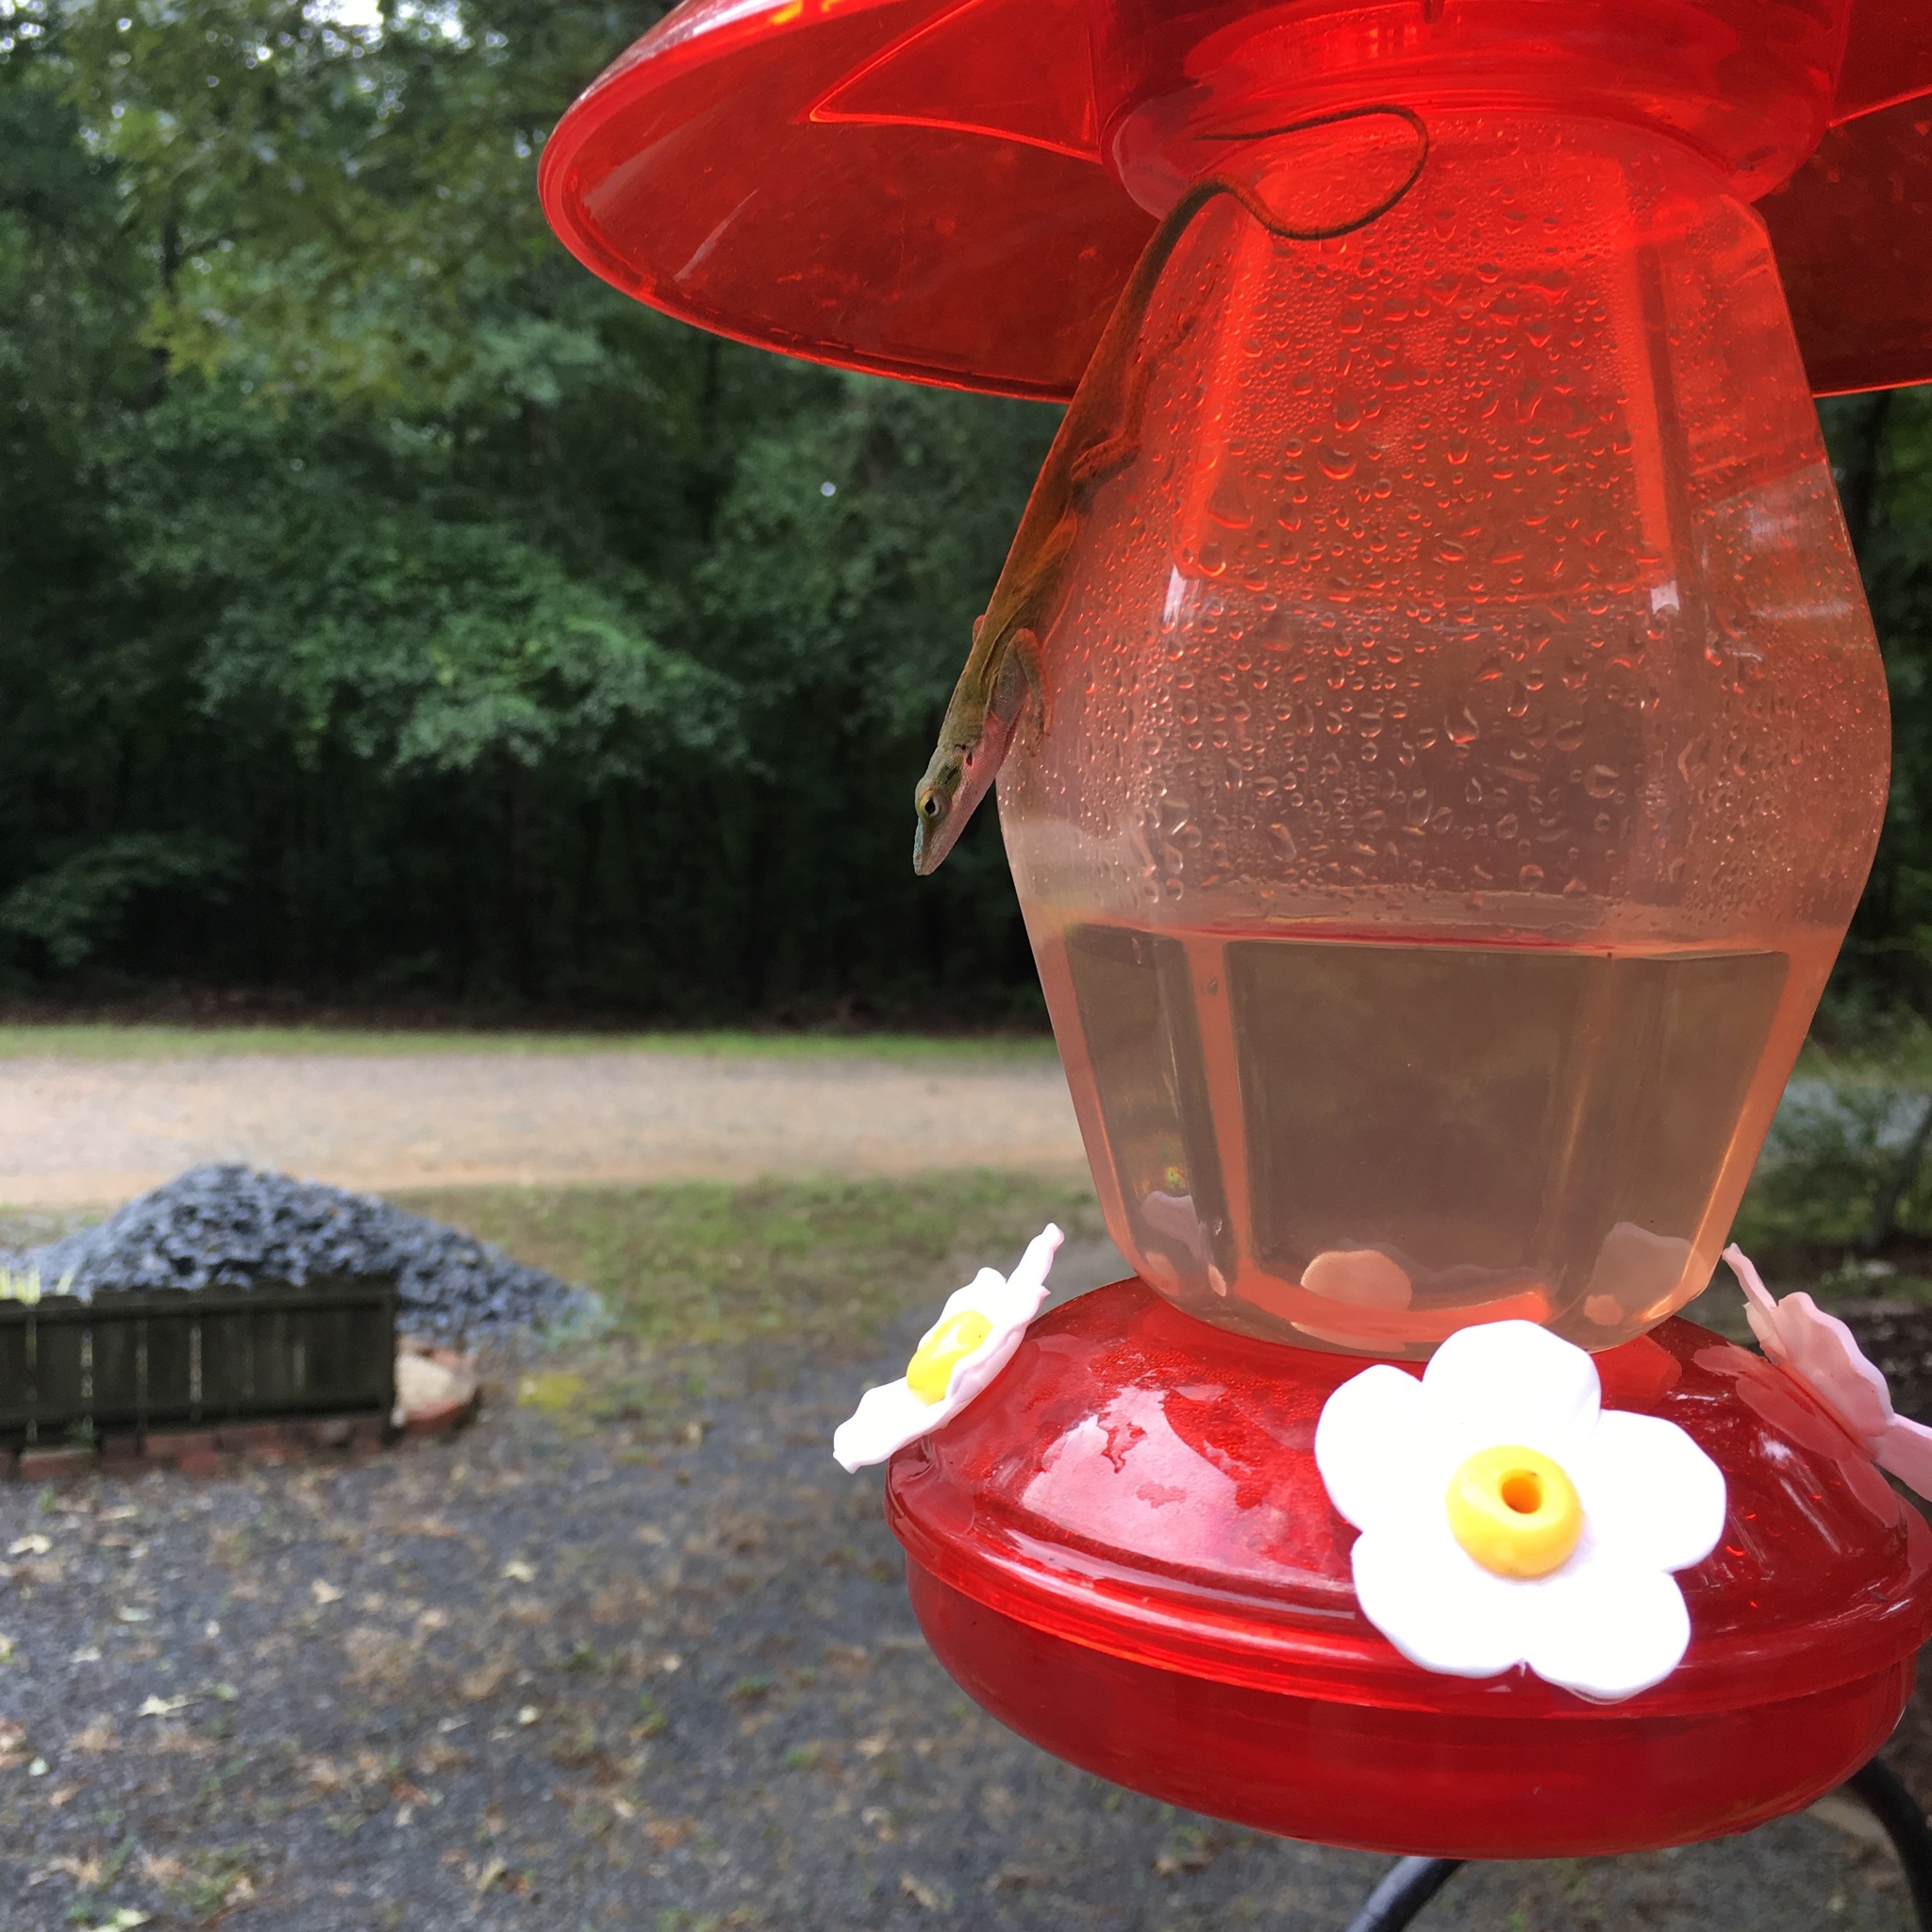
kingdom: Animalia
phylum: Chordata
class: Squamata
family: Dactyloidae
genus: Anolis
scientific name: Anolis carolinensis
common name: Green anole
